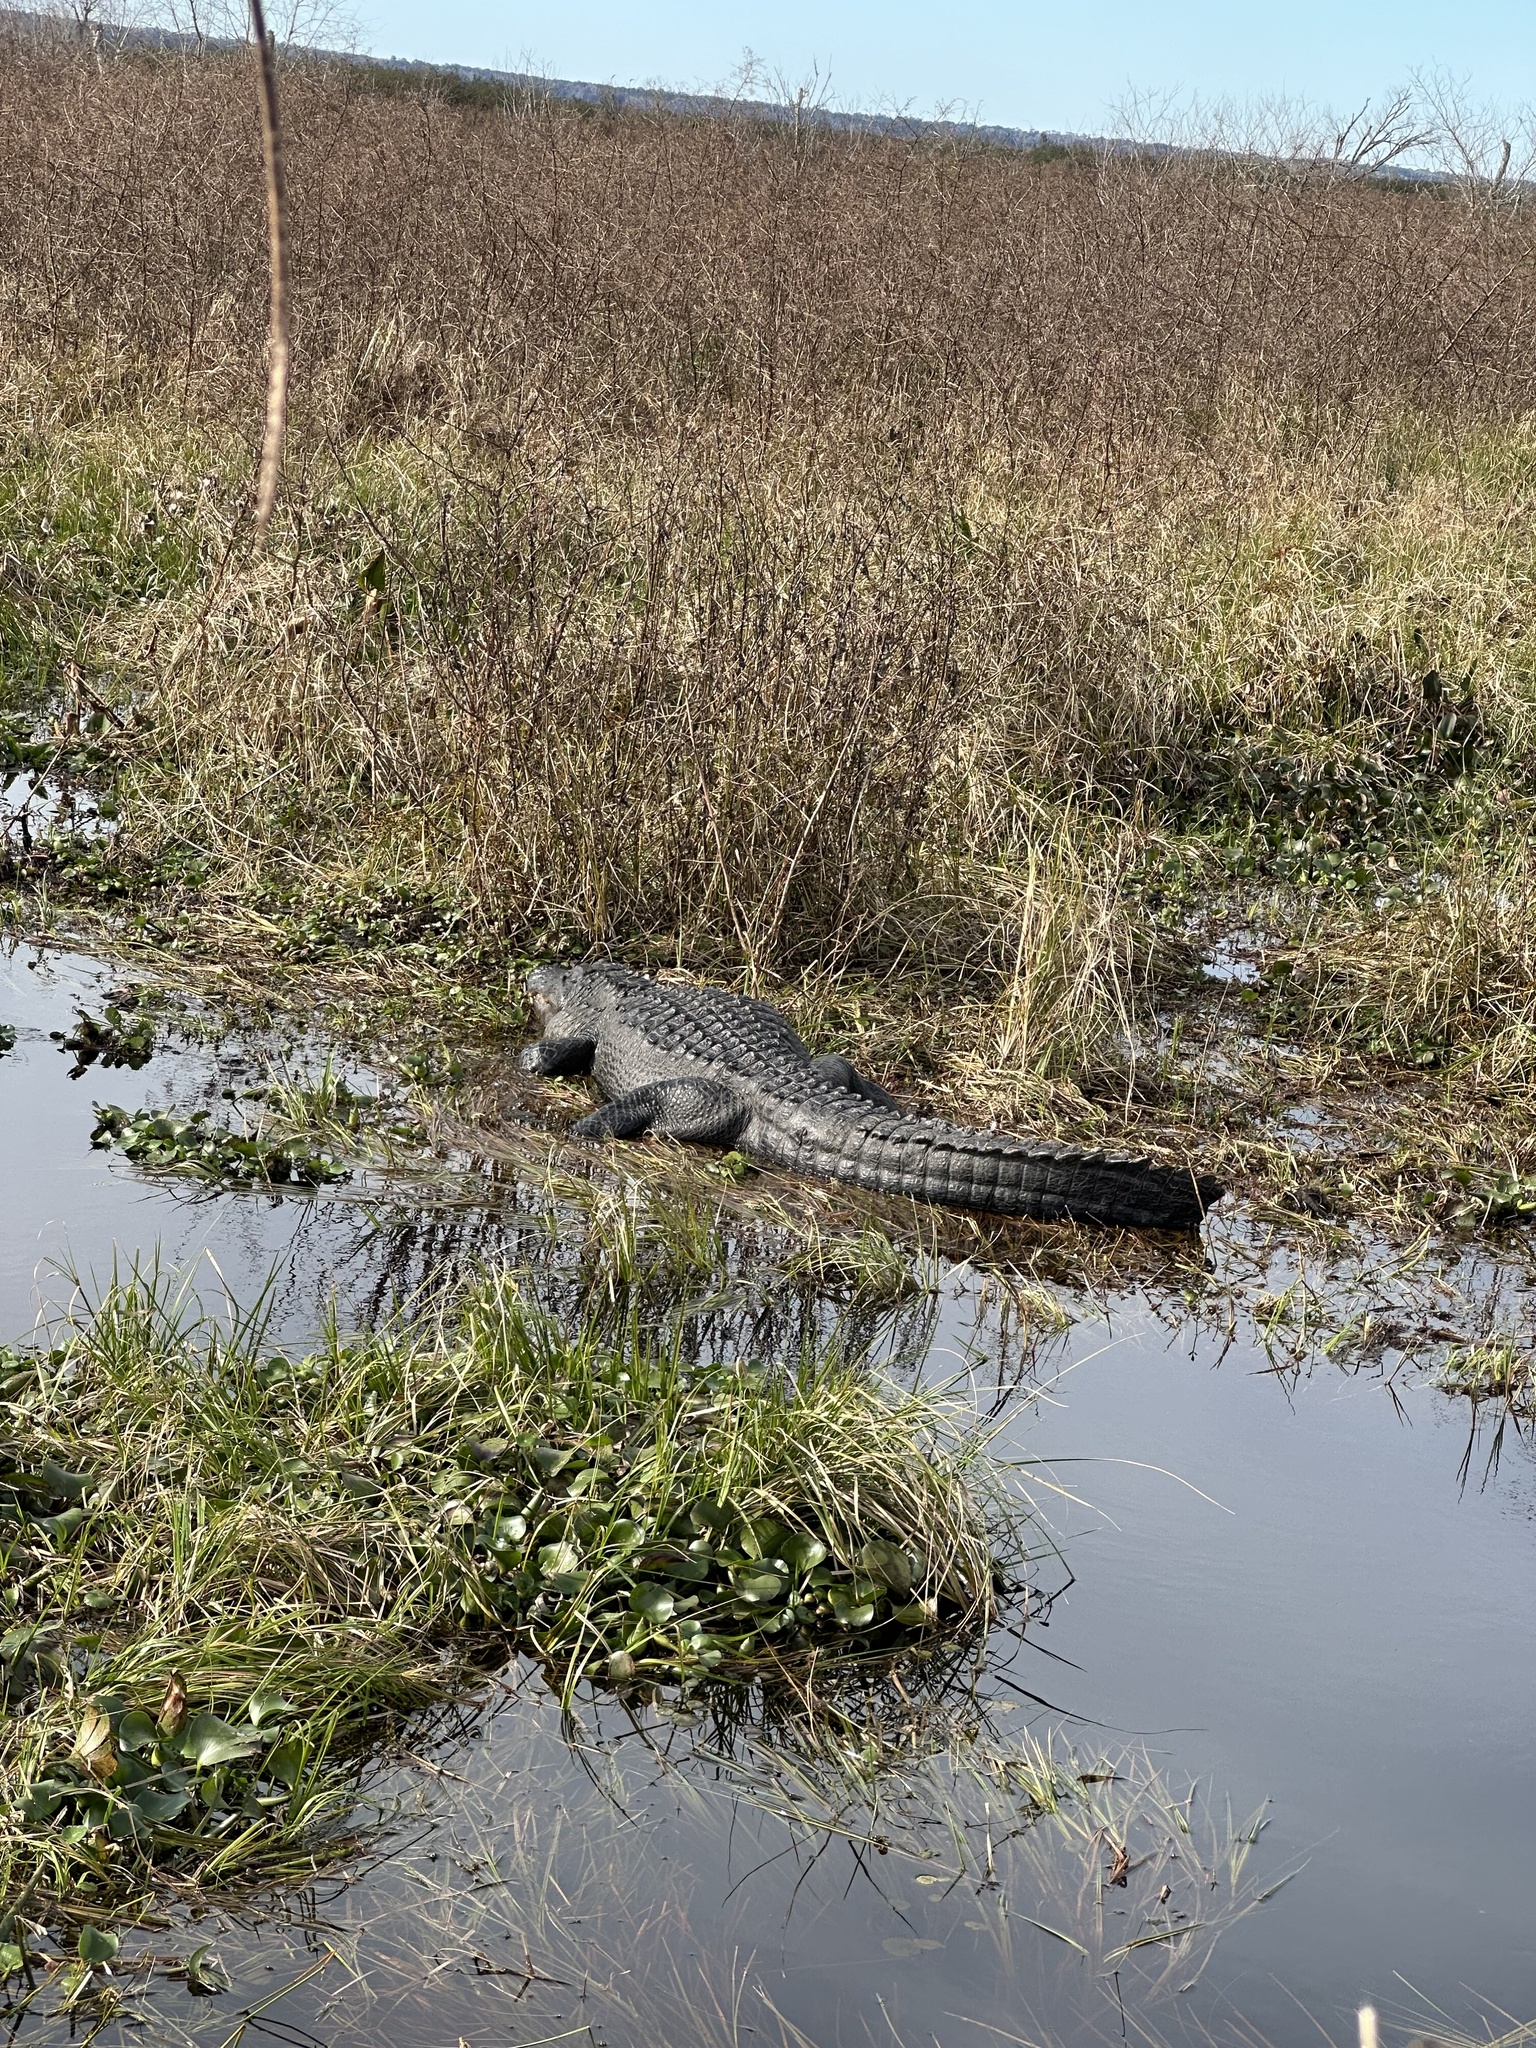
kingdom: Animalia
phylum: Chordata
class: Crocodylia
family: Alligatoridae
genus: Alligator
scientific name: Alligator mississippiensis
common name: American alligator
